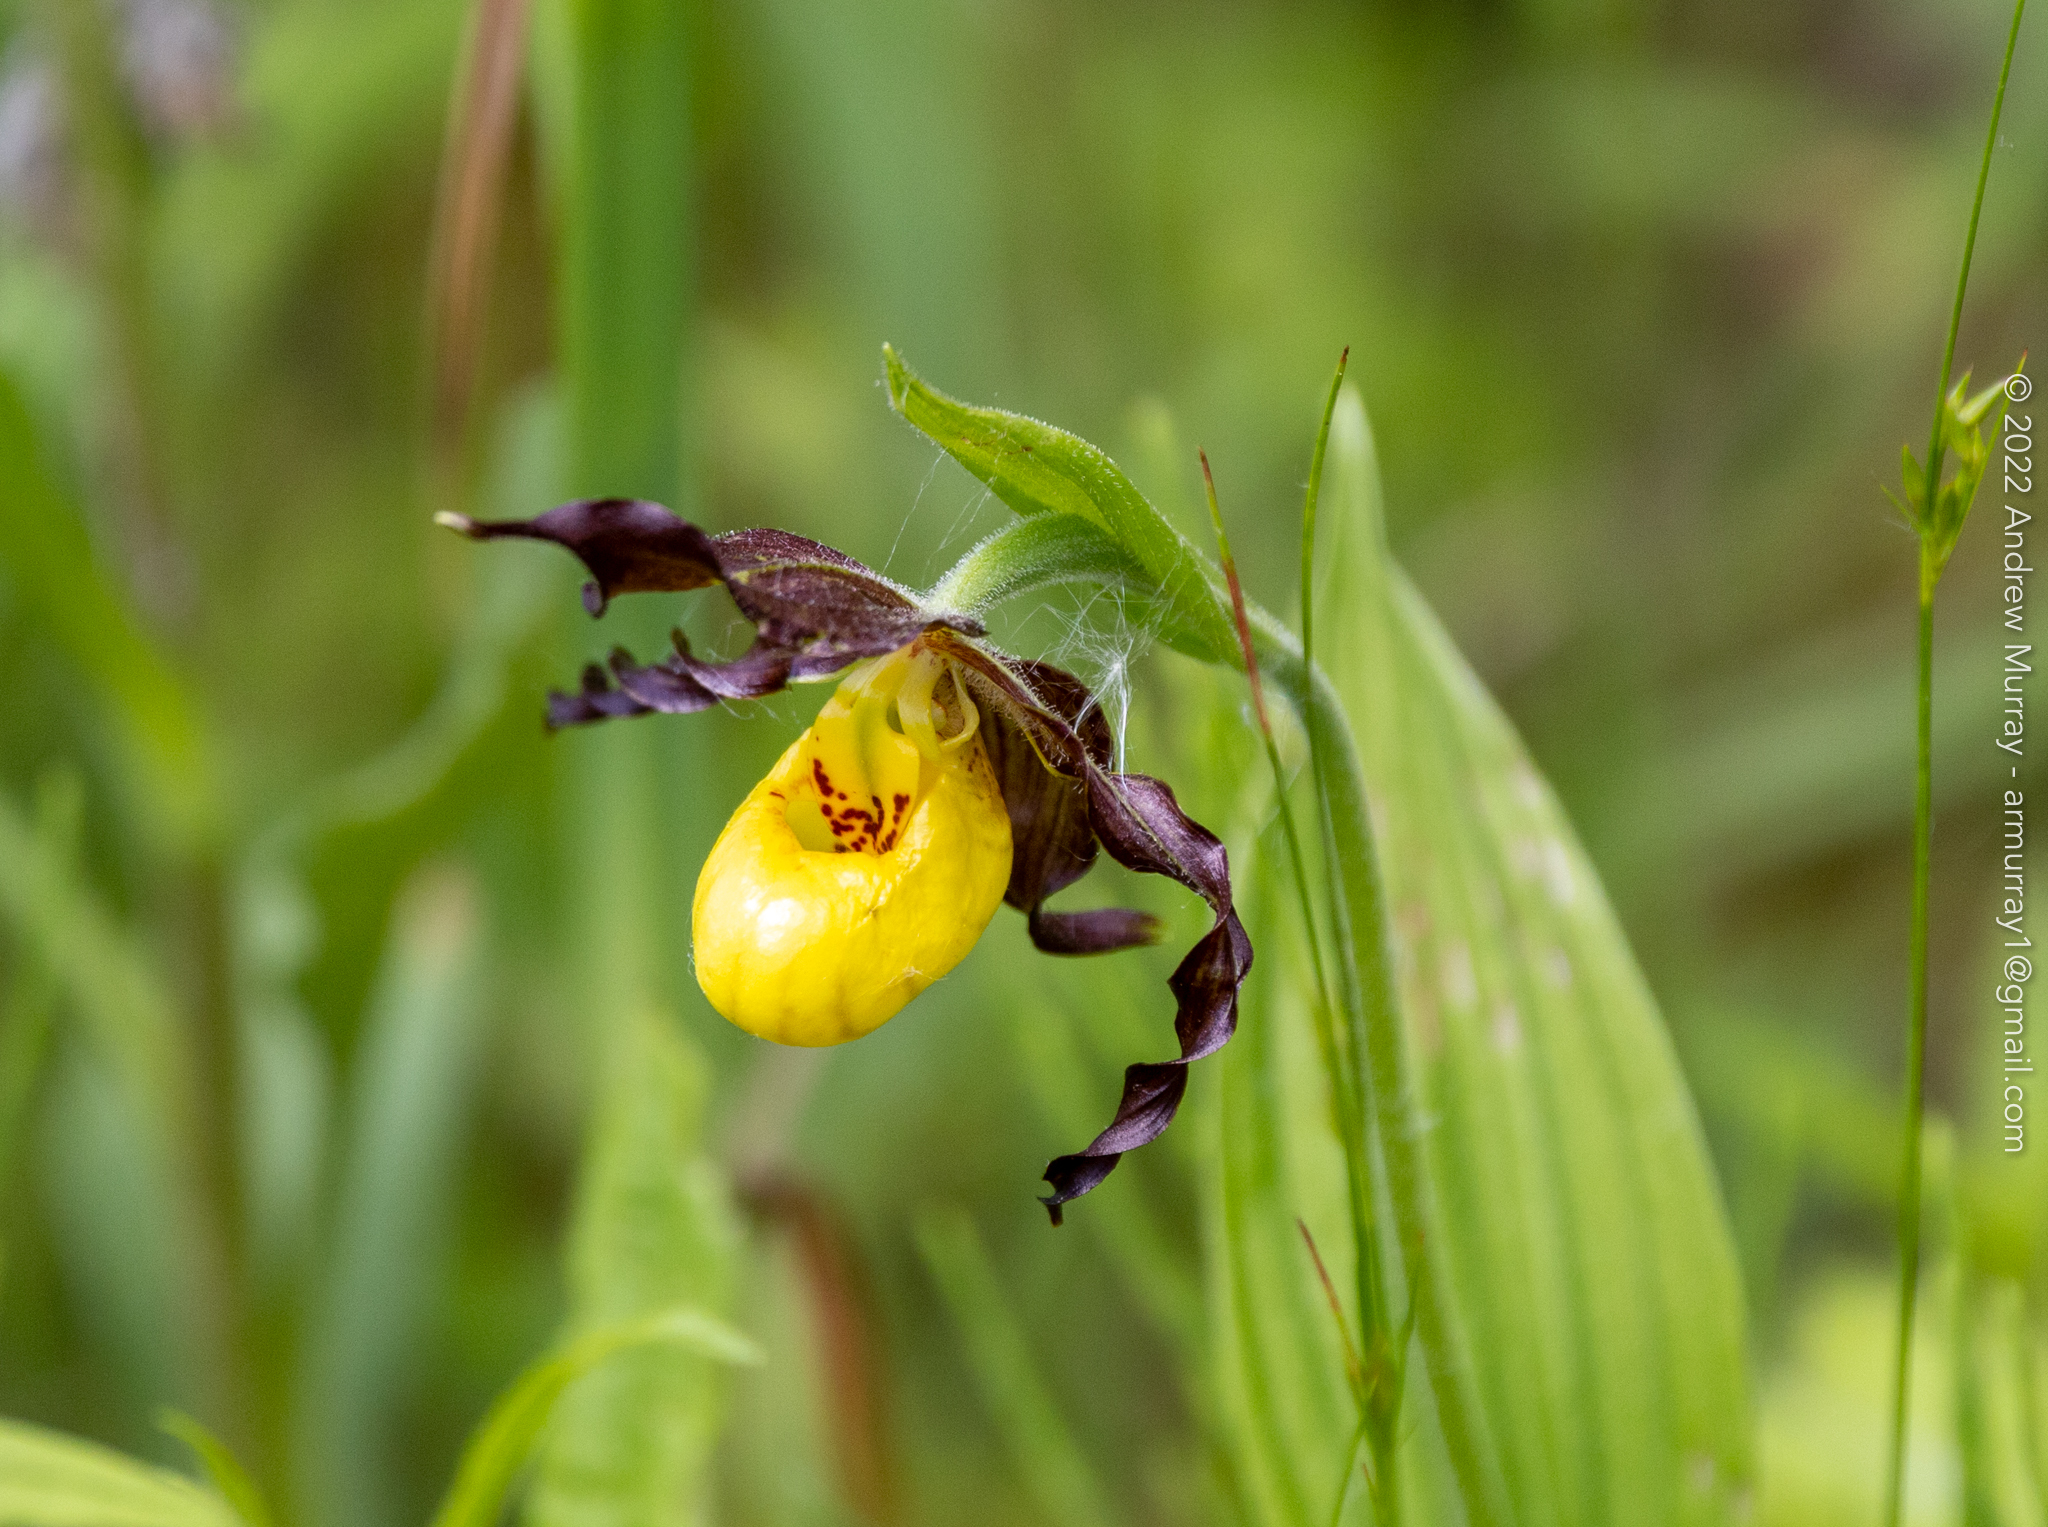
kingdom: Plantae
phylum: Tracheophyta
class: Liliopsida
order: Asparagales
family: Orchidaceae
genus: Cypripedium
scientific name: Cypripedium parviflorum
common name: American yellow lady's-slipper
